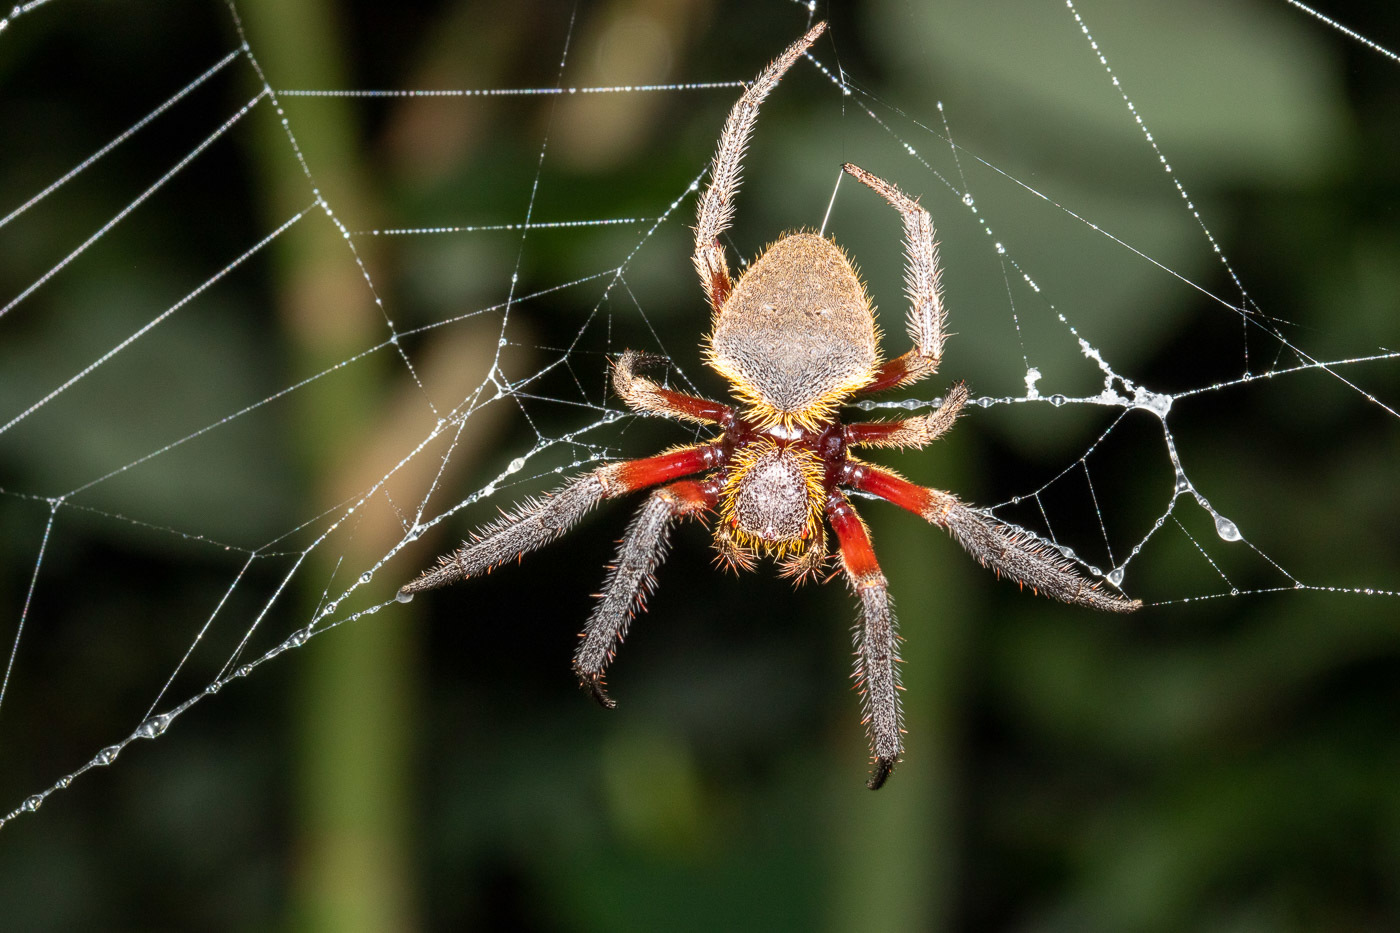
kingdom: Animalia
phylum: Arthropoda
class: Arachnida
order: Araneae
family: Araneidae
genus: Hortophora
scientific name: Hortophora transmarina
